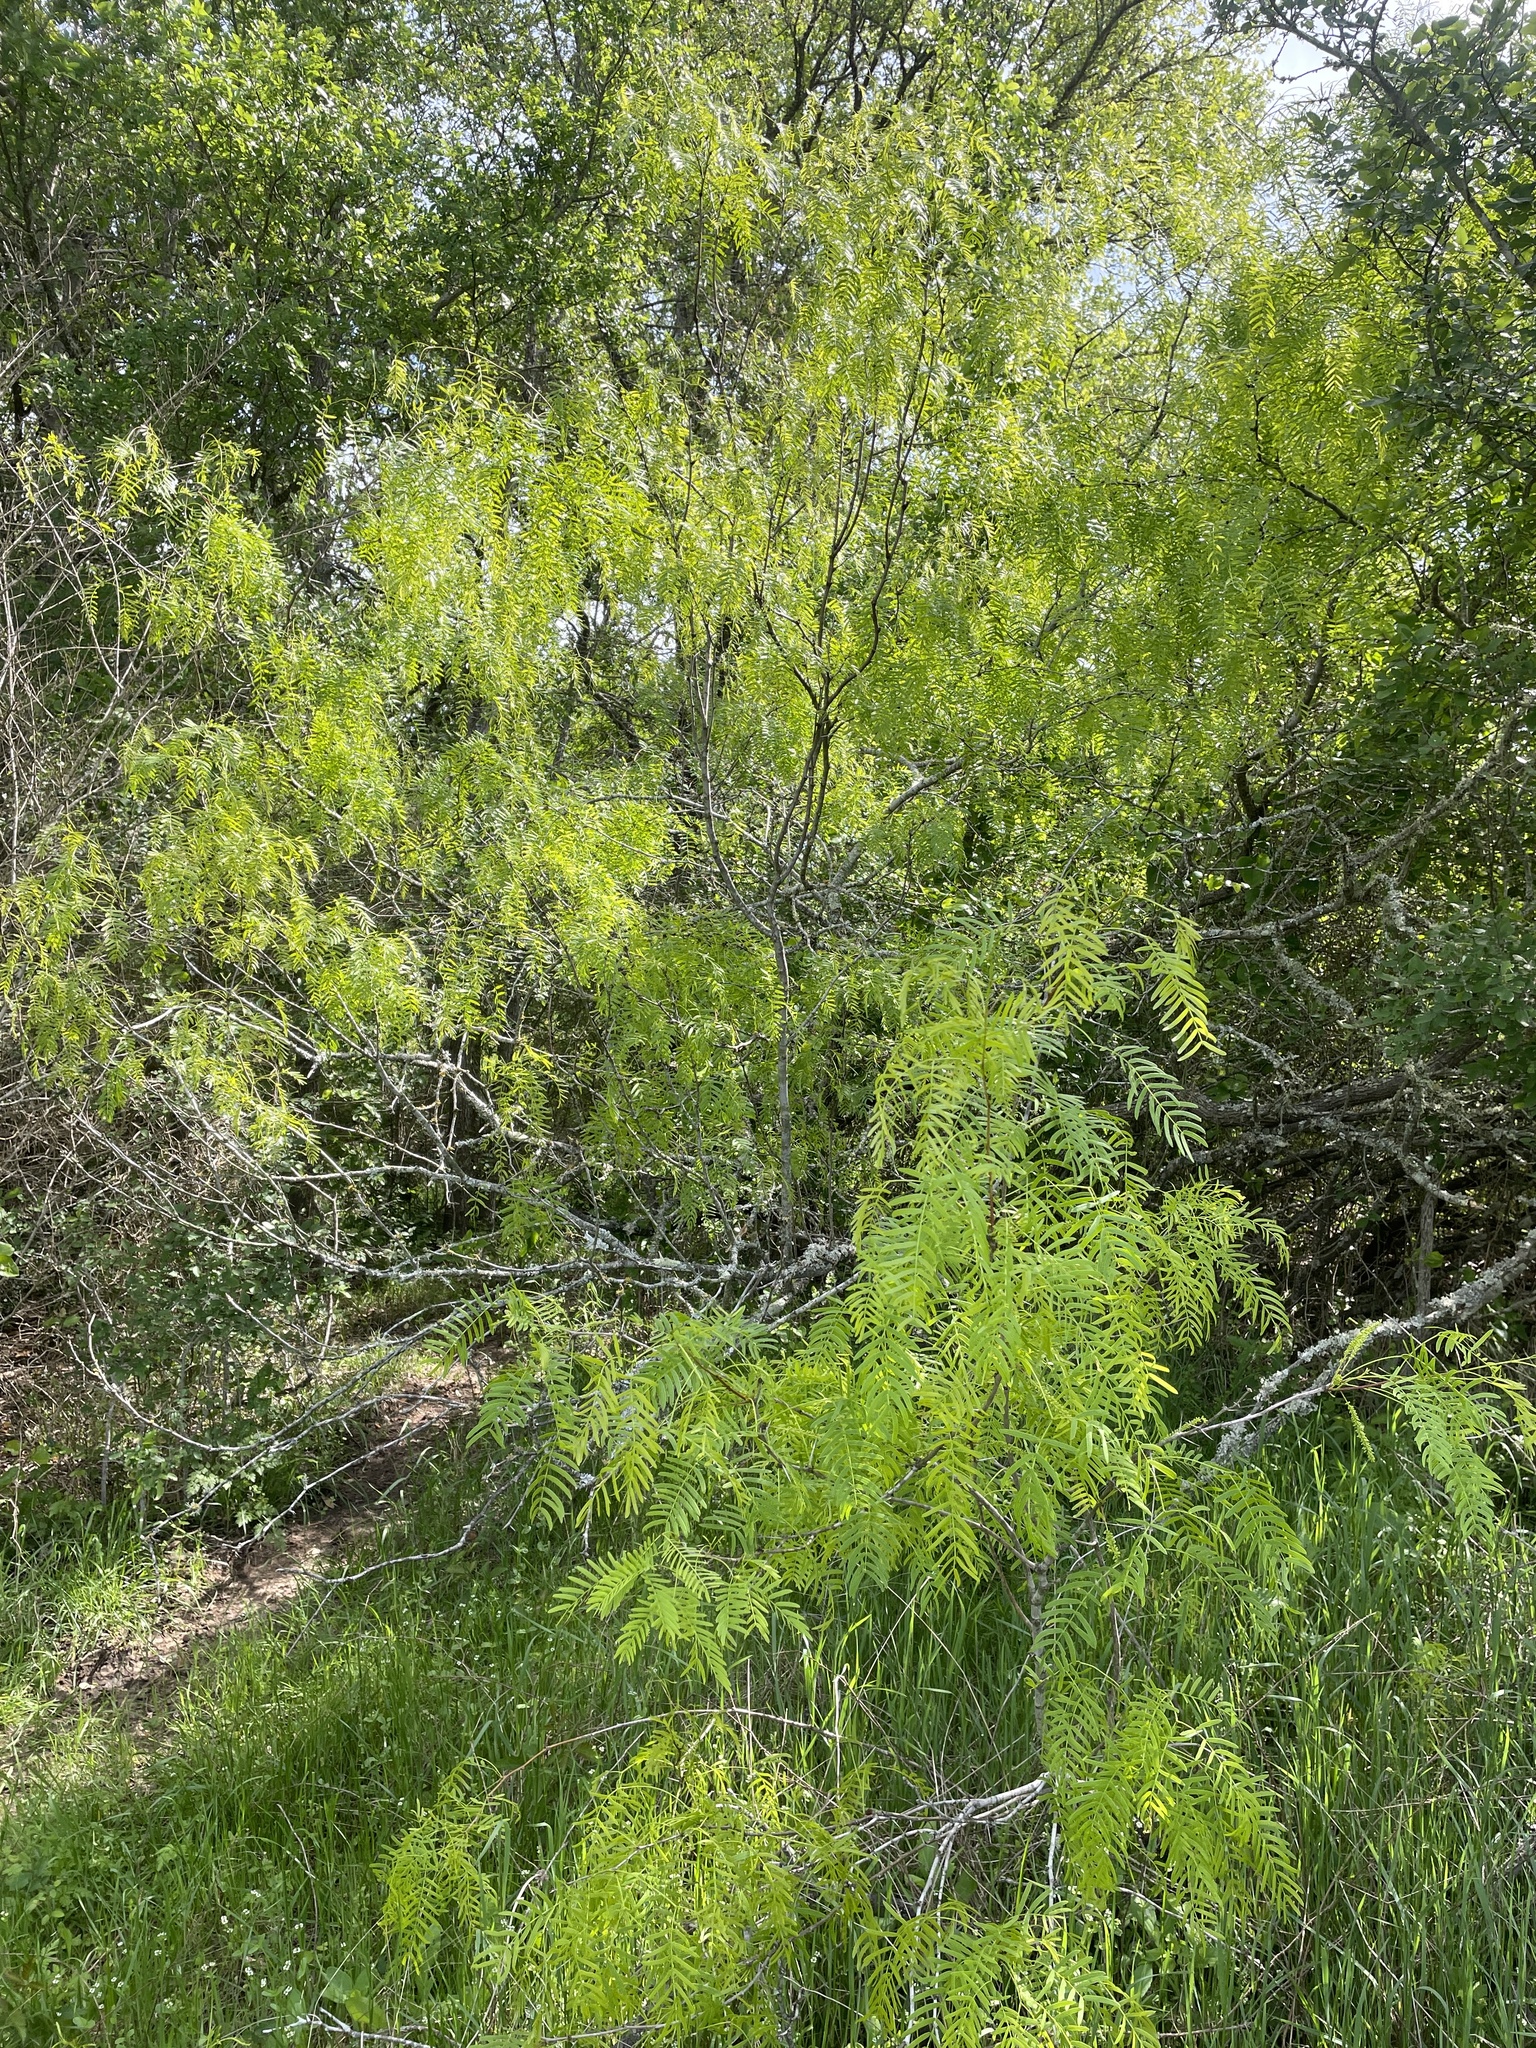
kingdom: Plantae
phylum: Tracheophyta
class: Magnoliopsida
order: Fabales
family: Fabaceae
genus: Prosopis
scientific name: Prosopis glandulosa
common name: Honey mesquite
